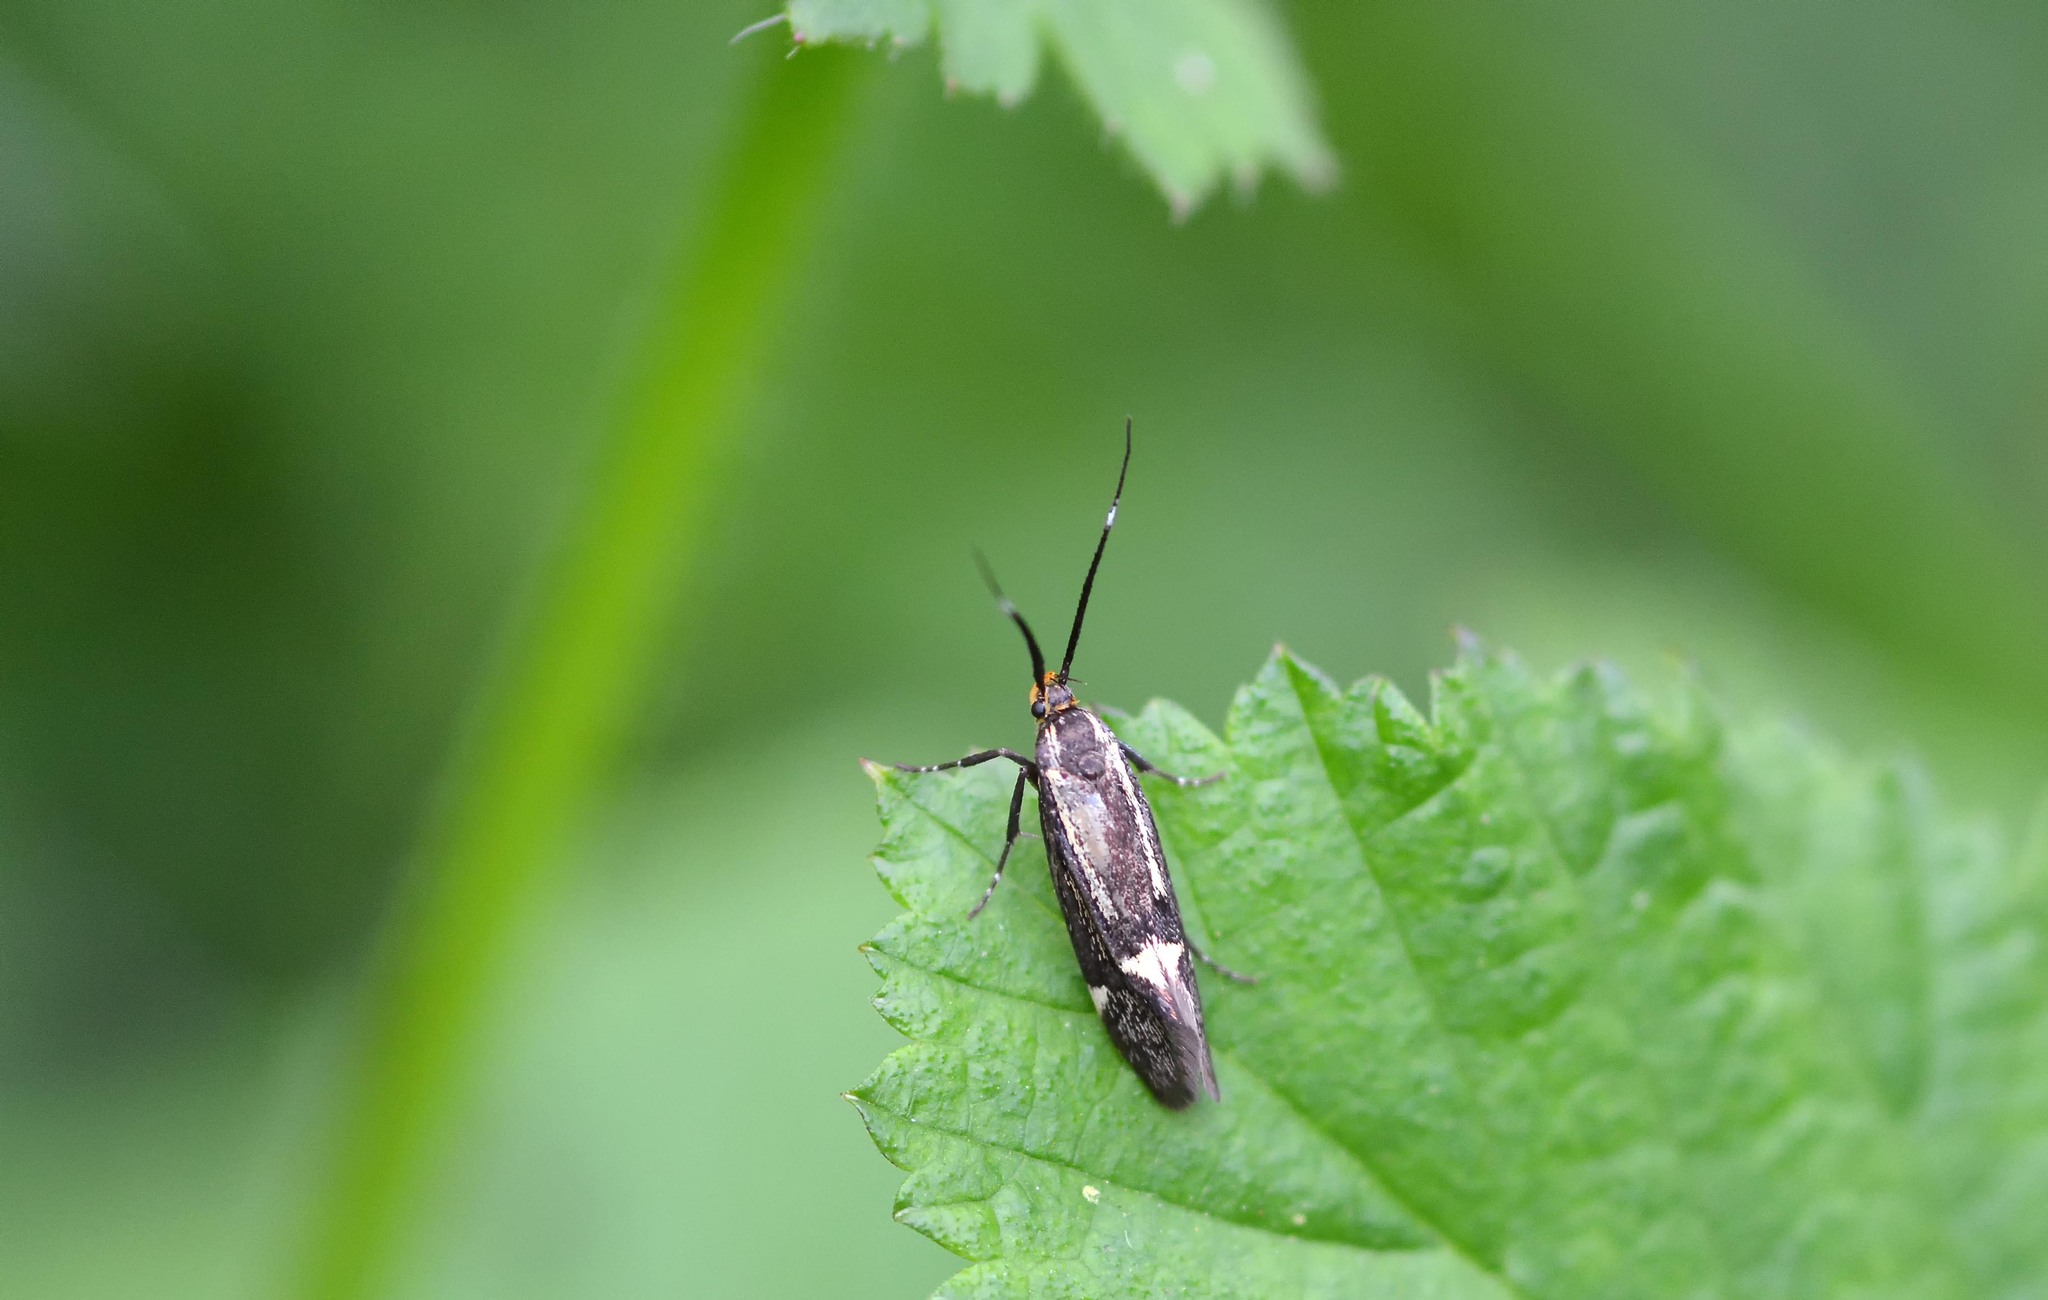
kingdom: Animalia
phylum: Arthropoda
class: Insecta
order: Lepidoptera
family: Oecophoridae
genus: Dafa
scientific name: Dafa Esperia sulphurella
